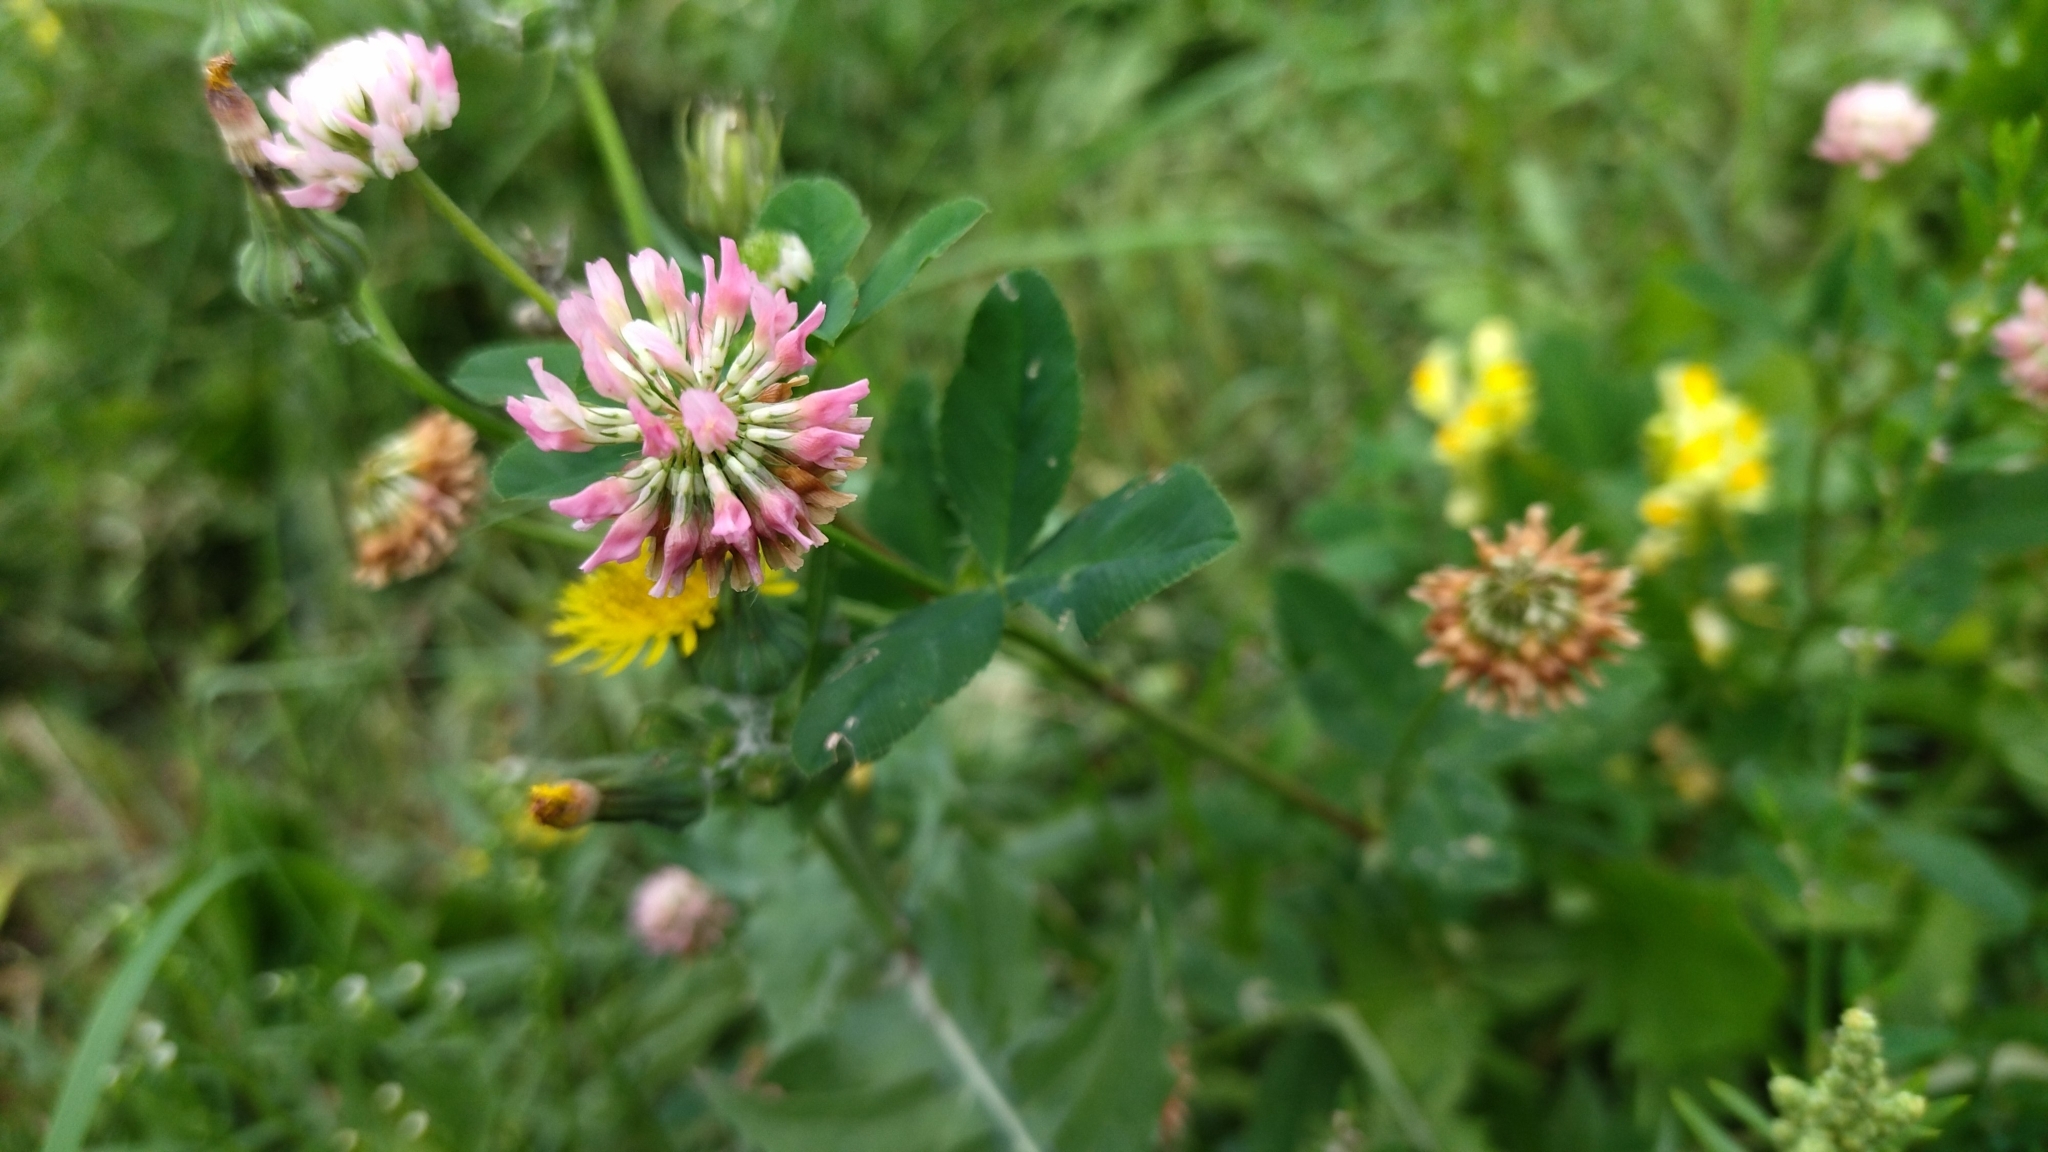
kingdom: Plantae
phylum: Tracheophyta
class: Magnoliopsida
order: Fabales
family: Fabaceae
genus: Trifolium
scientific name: Trifolium hybridum
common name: Alsike clover
